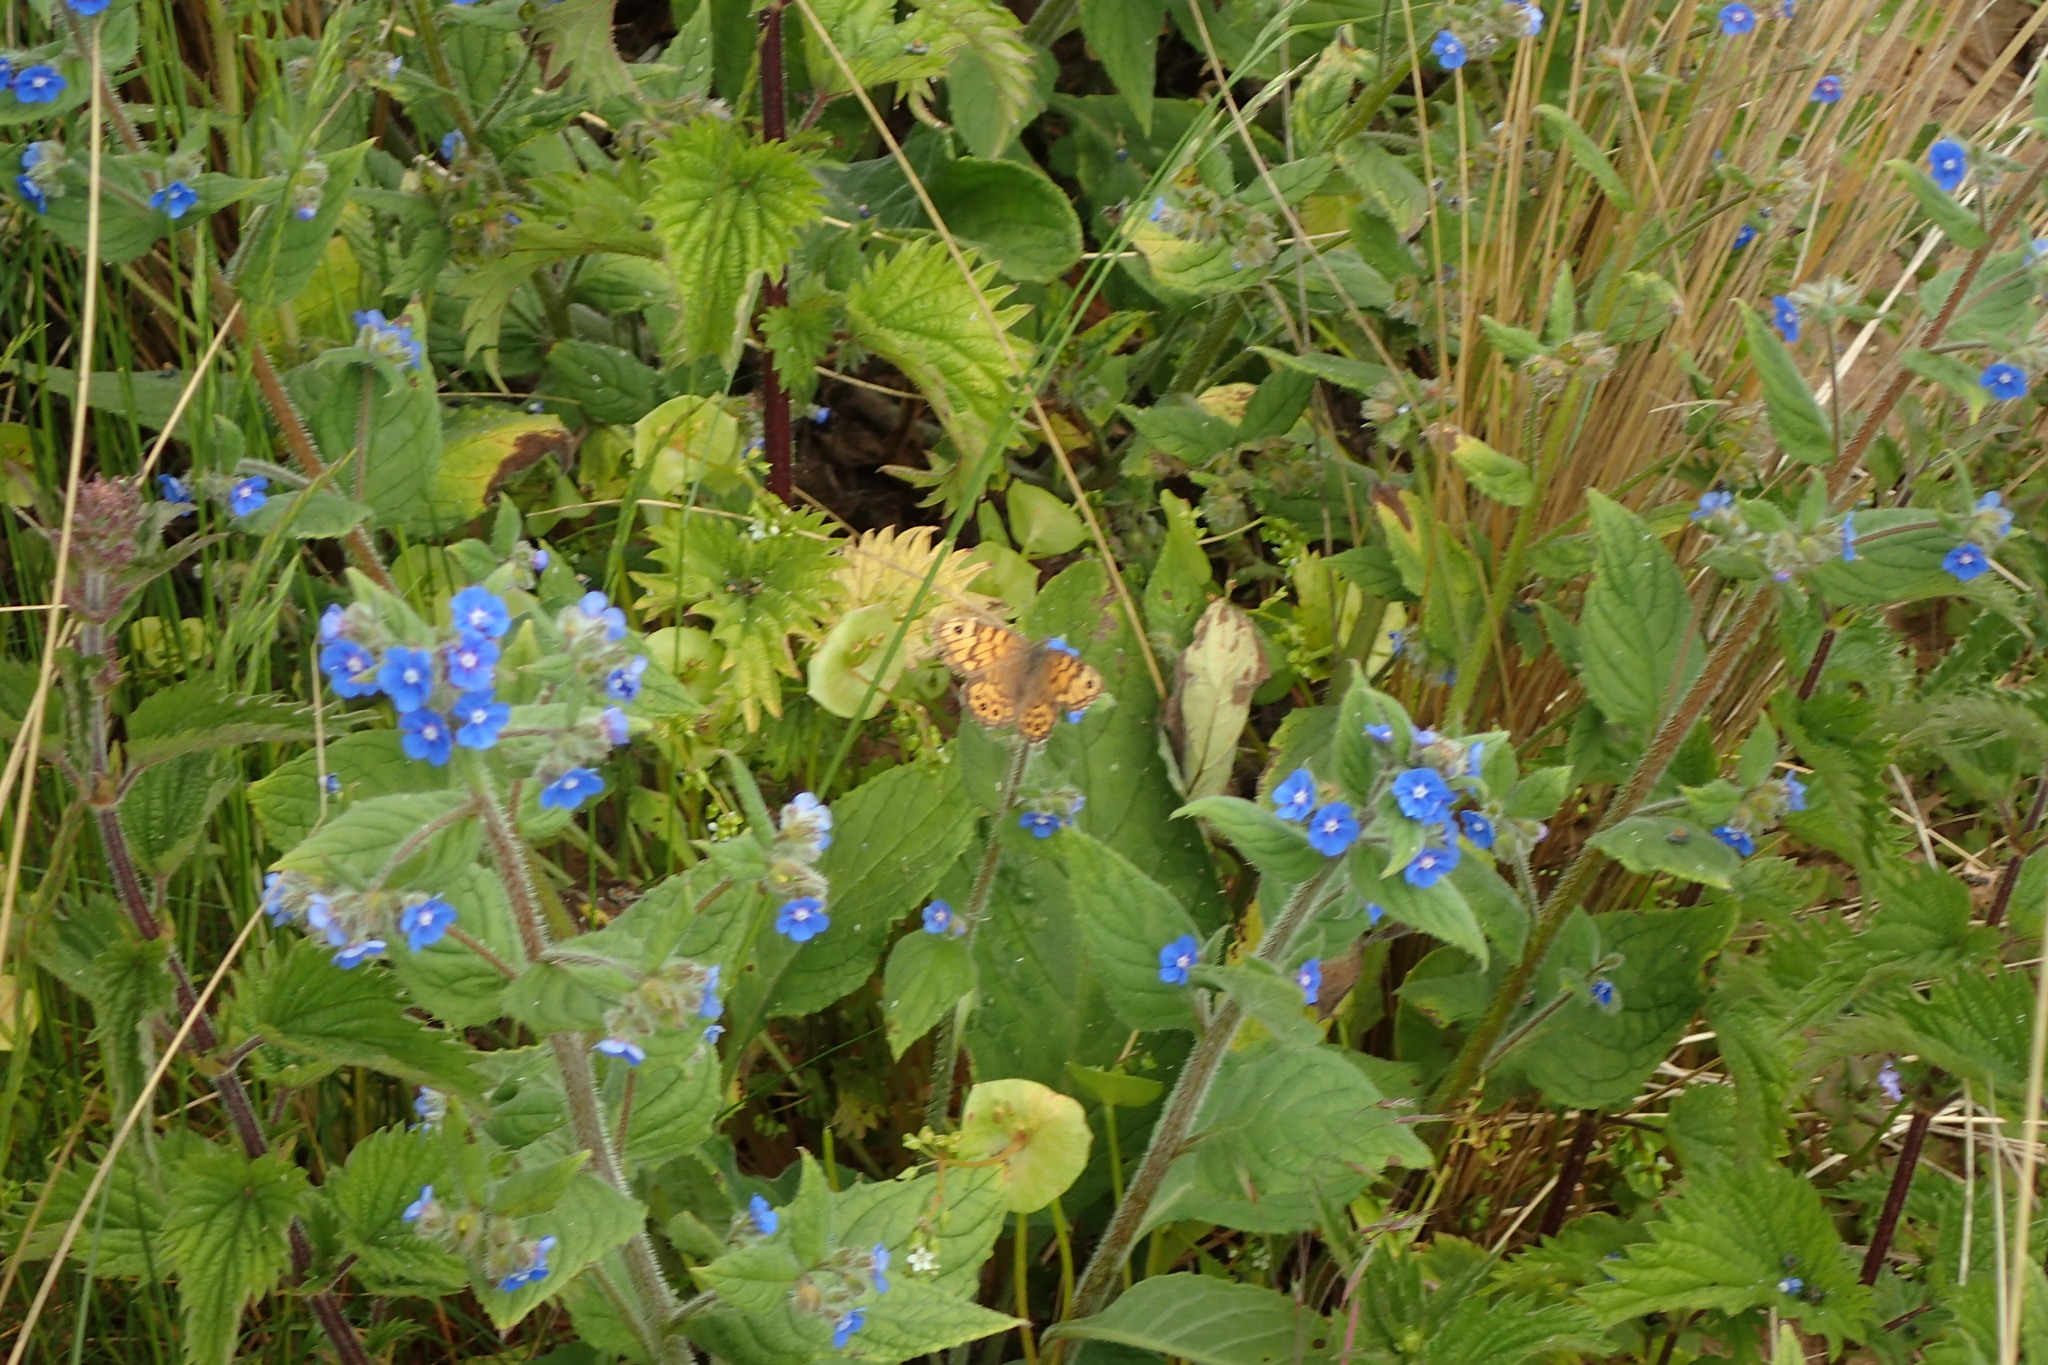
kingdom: Animalia
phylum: Arthropoda
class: Insecta
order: Lepidoptera
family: Nymphalidae
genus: Pararge
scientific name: Pararge Lasiommata megera
